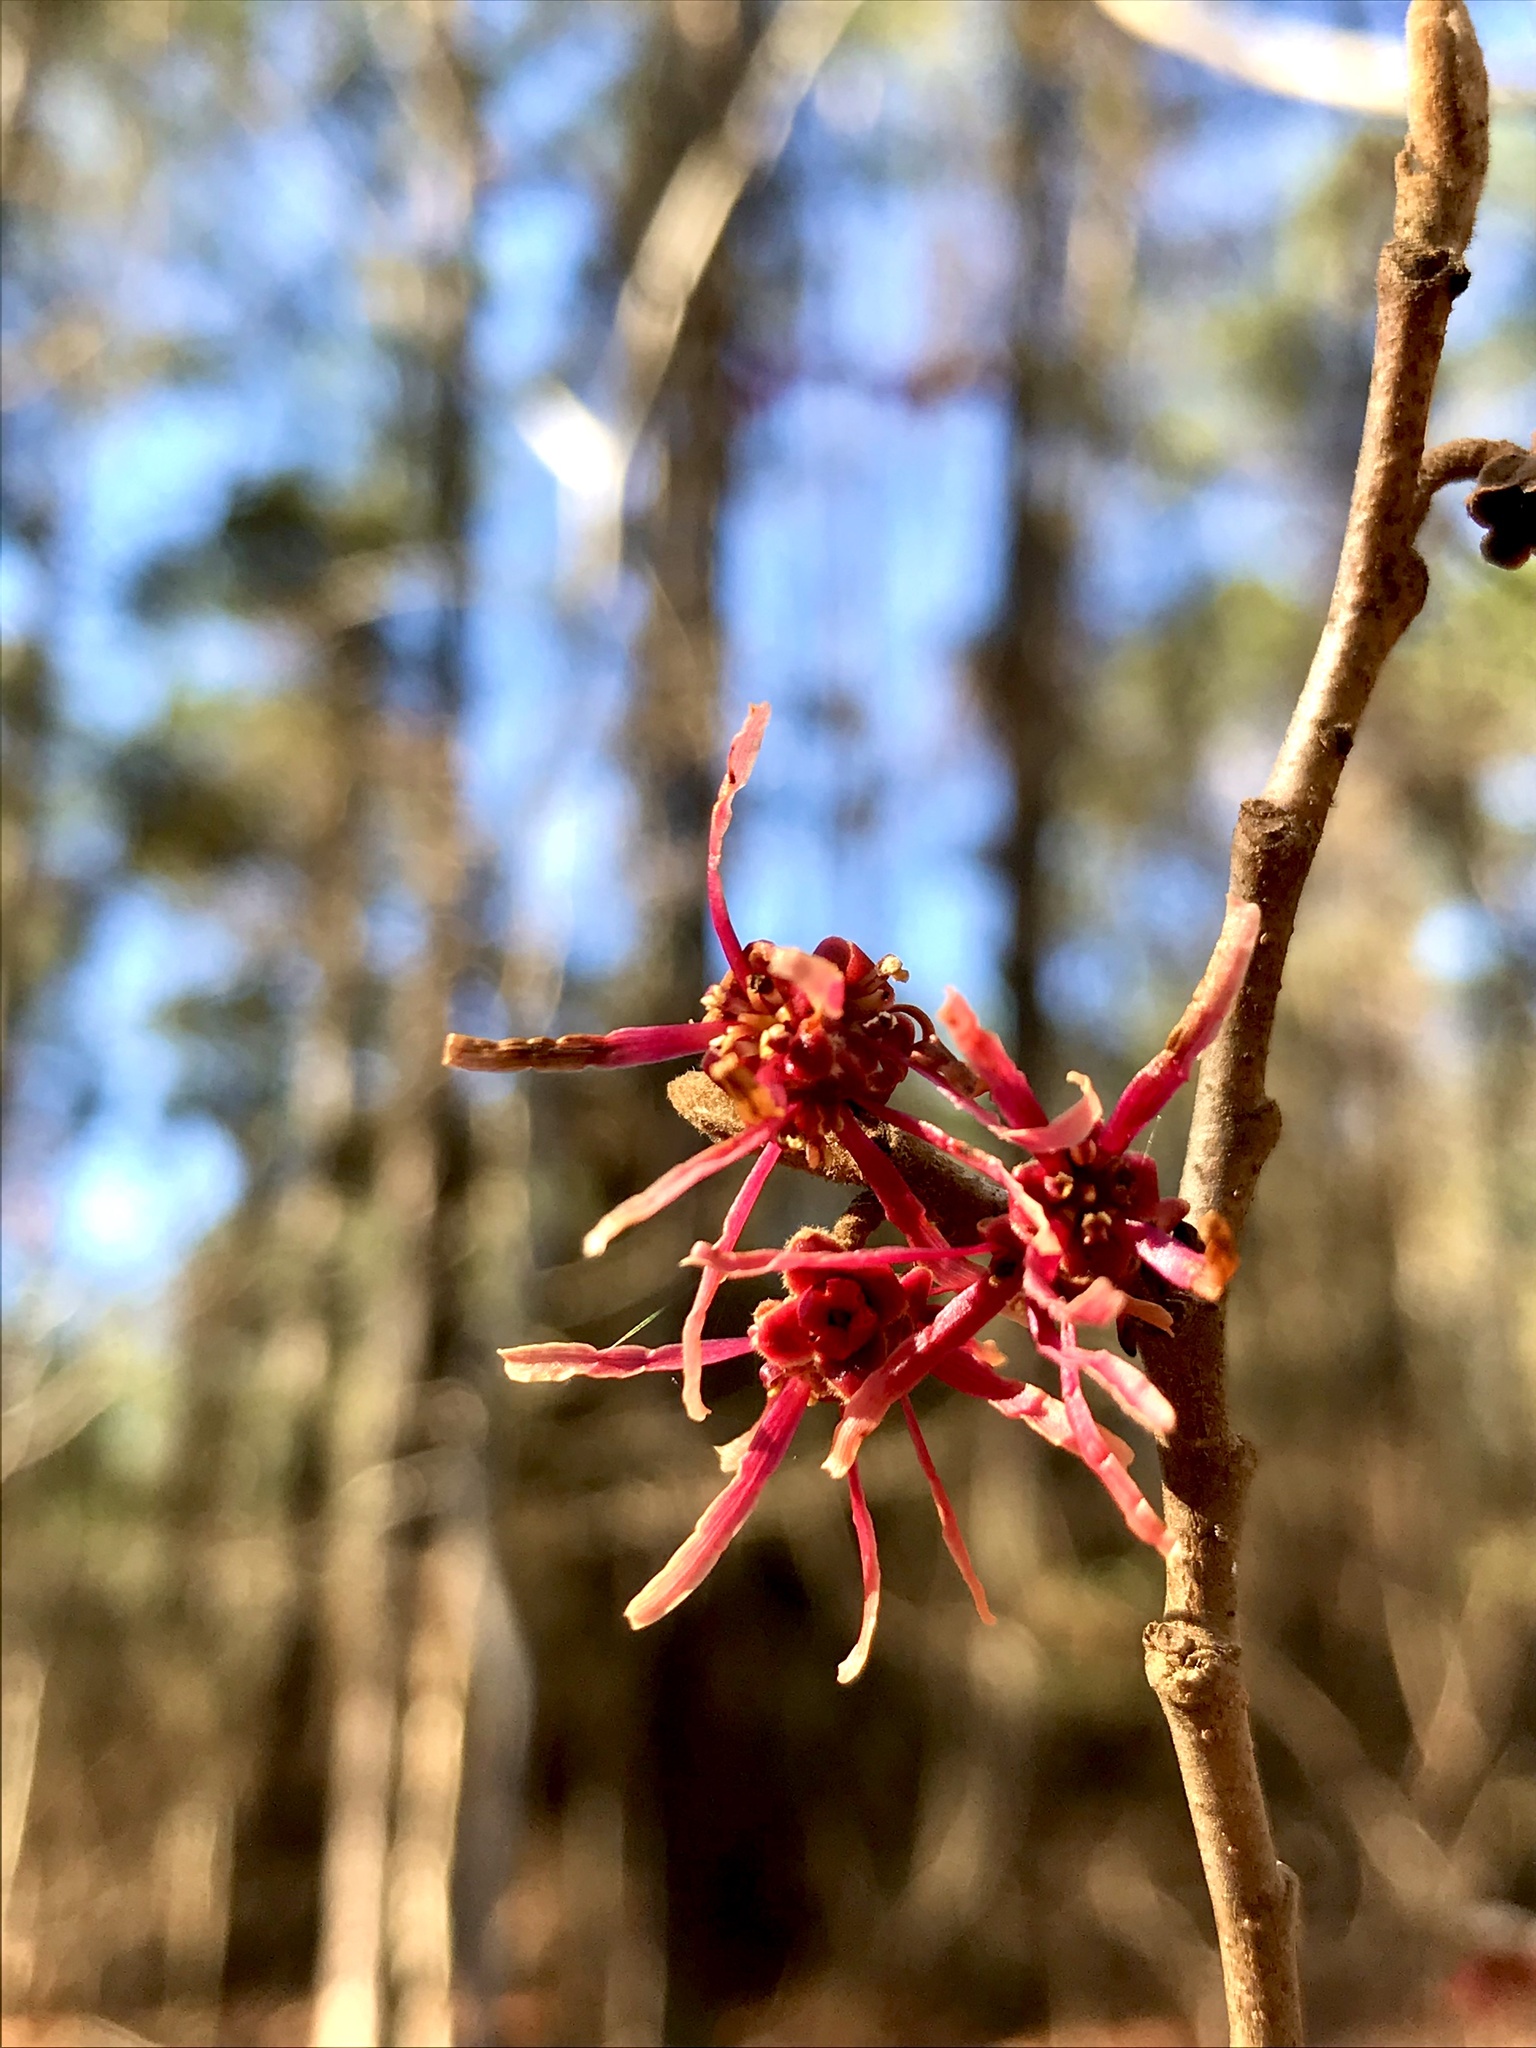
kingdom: Plantae
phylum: Tracheophyta
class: Magnoliopsida
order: Saxifragales
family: Hamamelidaceae
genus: Hamamelis
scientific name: Hamamelis ovalis
